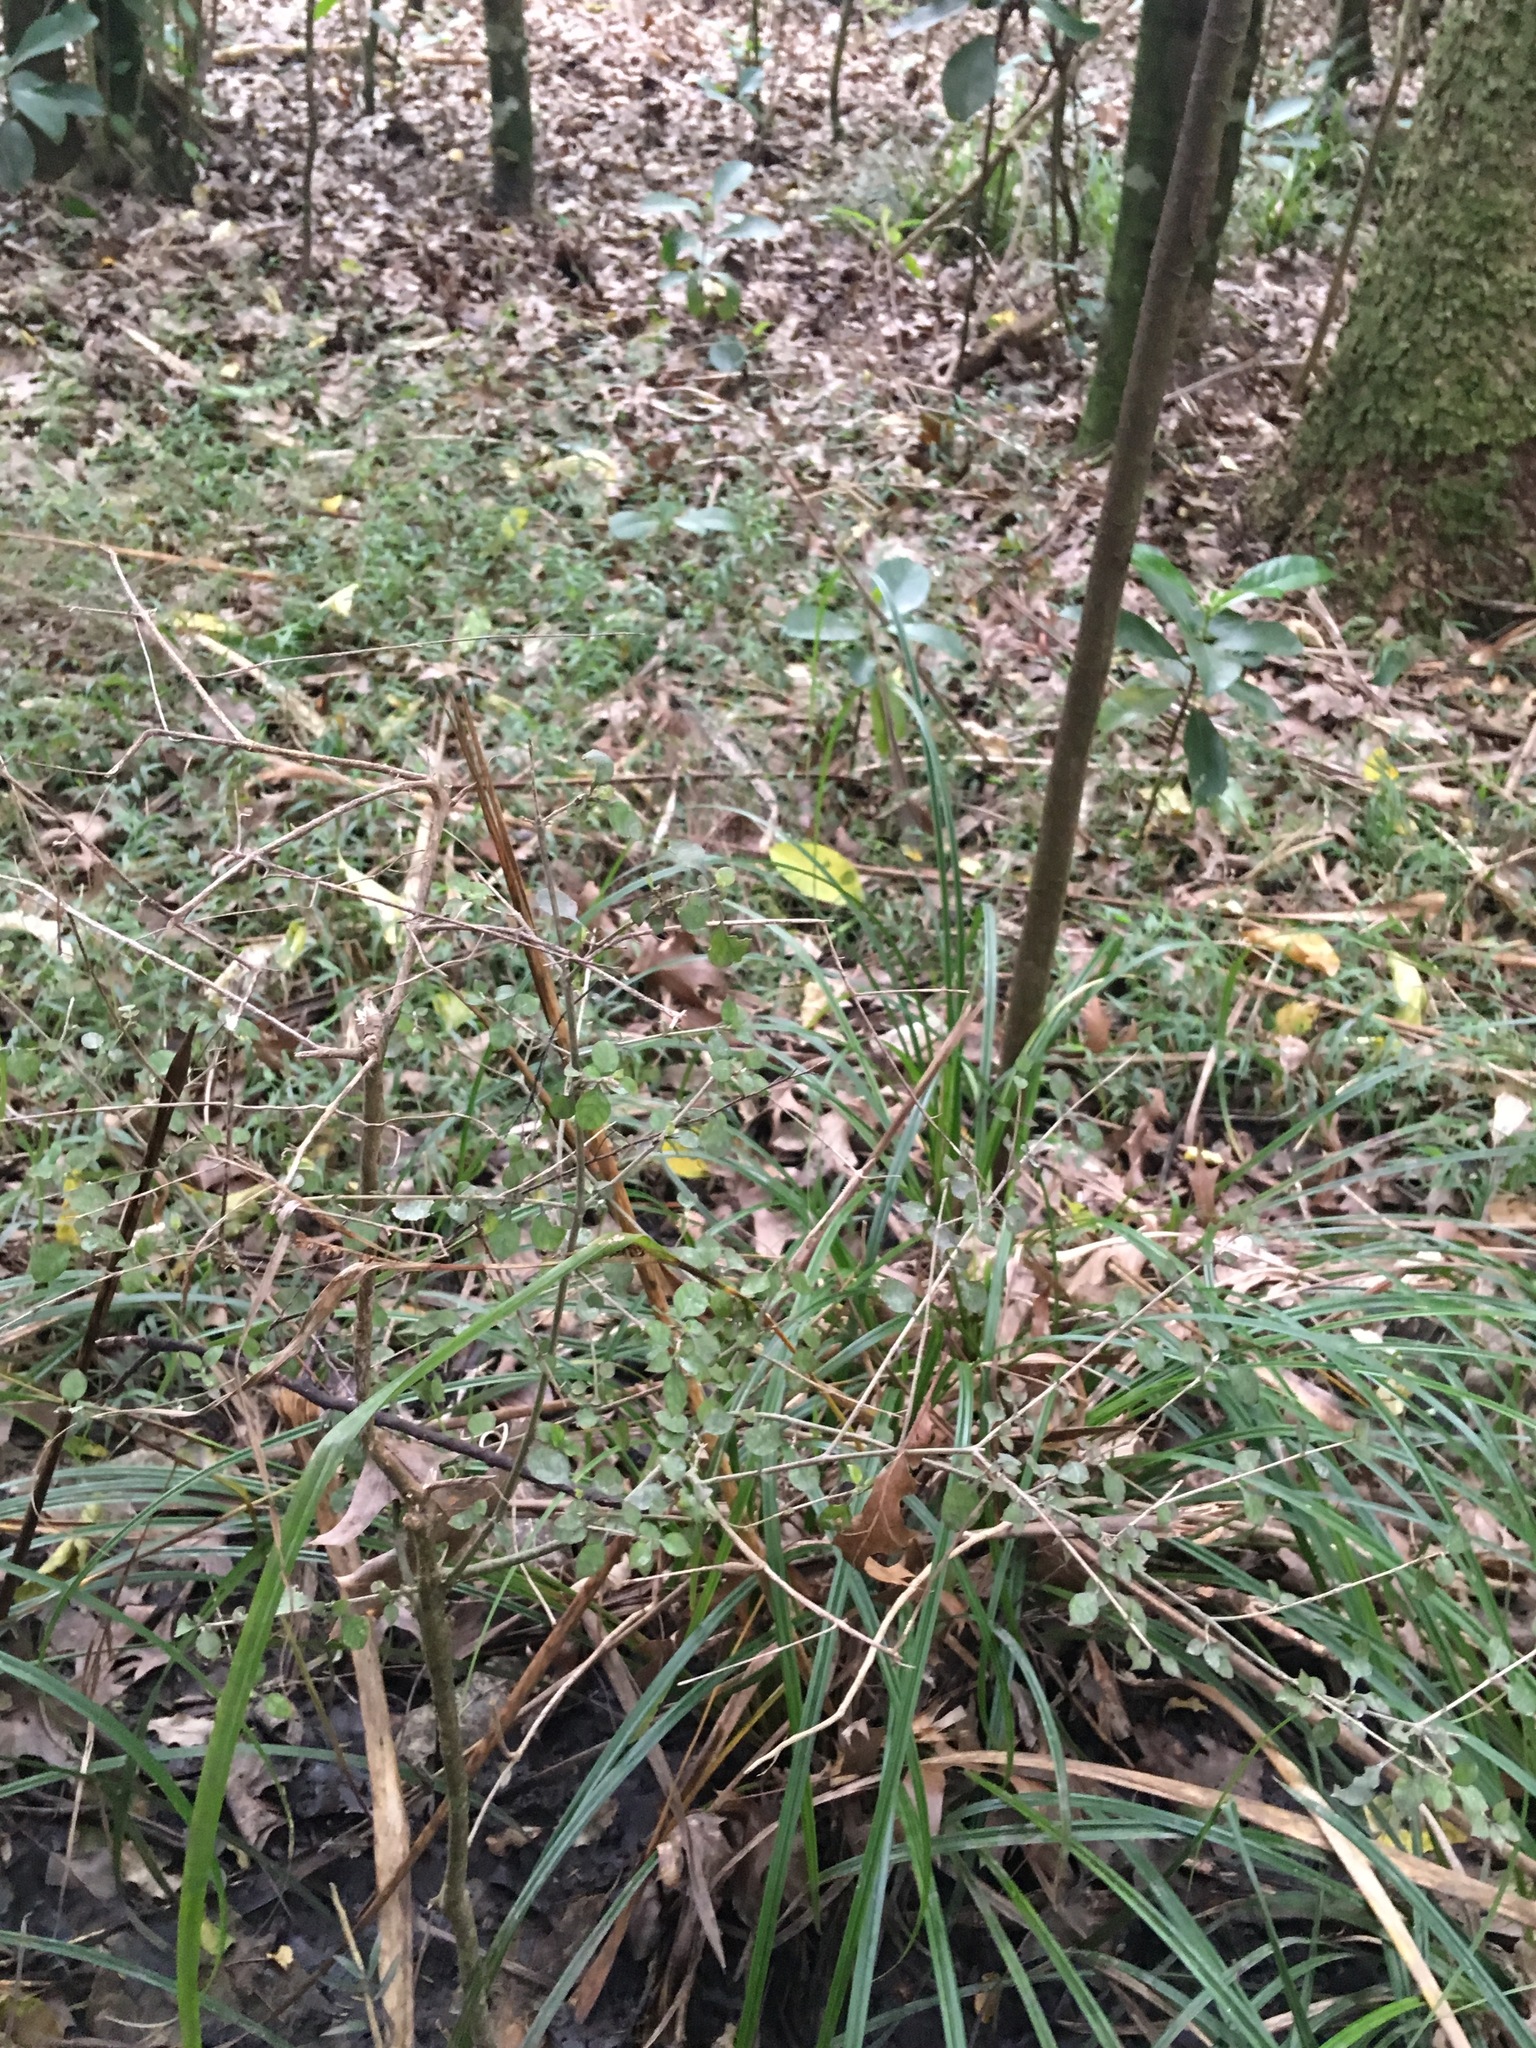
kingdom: Plantae
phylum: Tracheophyta
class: Magnoliopsida
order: Gentianales
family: Rubiaceae
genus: Coprosma
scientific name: Coprosma areolata
